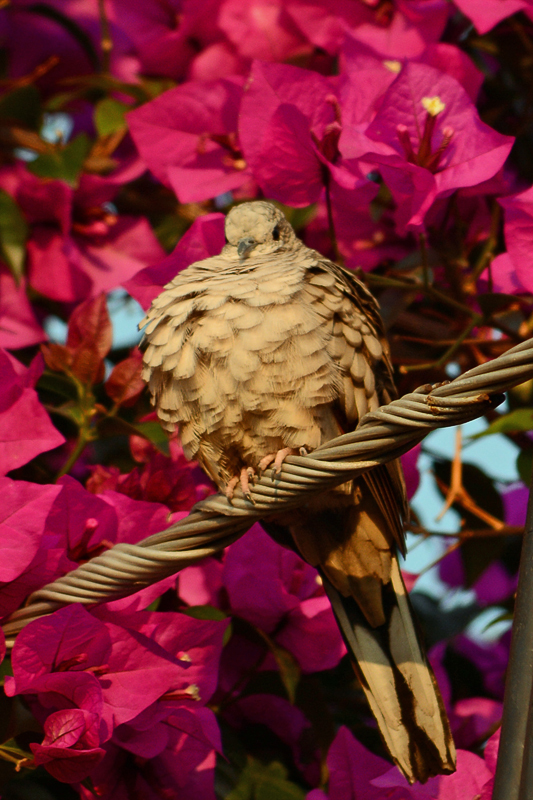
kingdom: Animalia
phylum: Chordata
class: Aves
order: Columbiformes
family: Columbidae
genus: Columbina
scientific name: Columbina inca
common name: Inca dove
